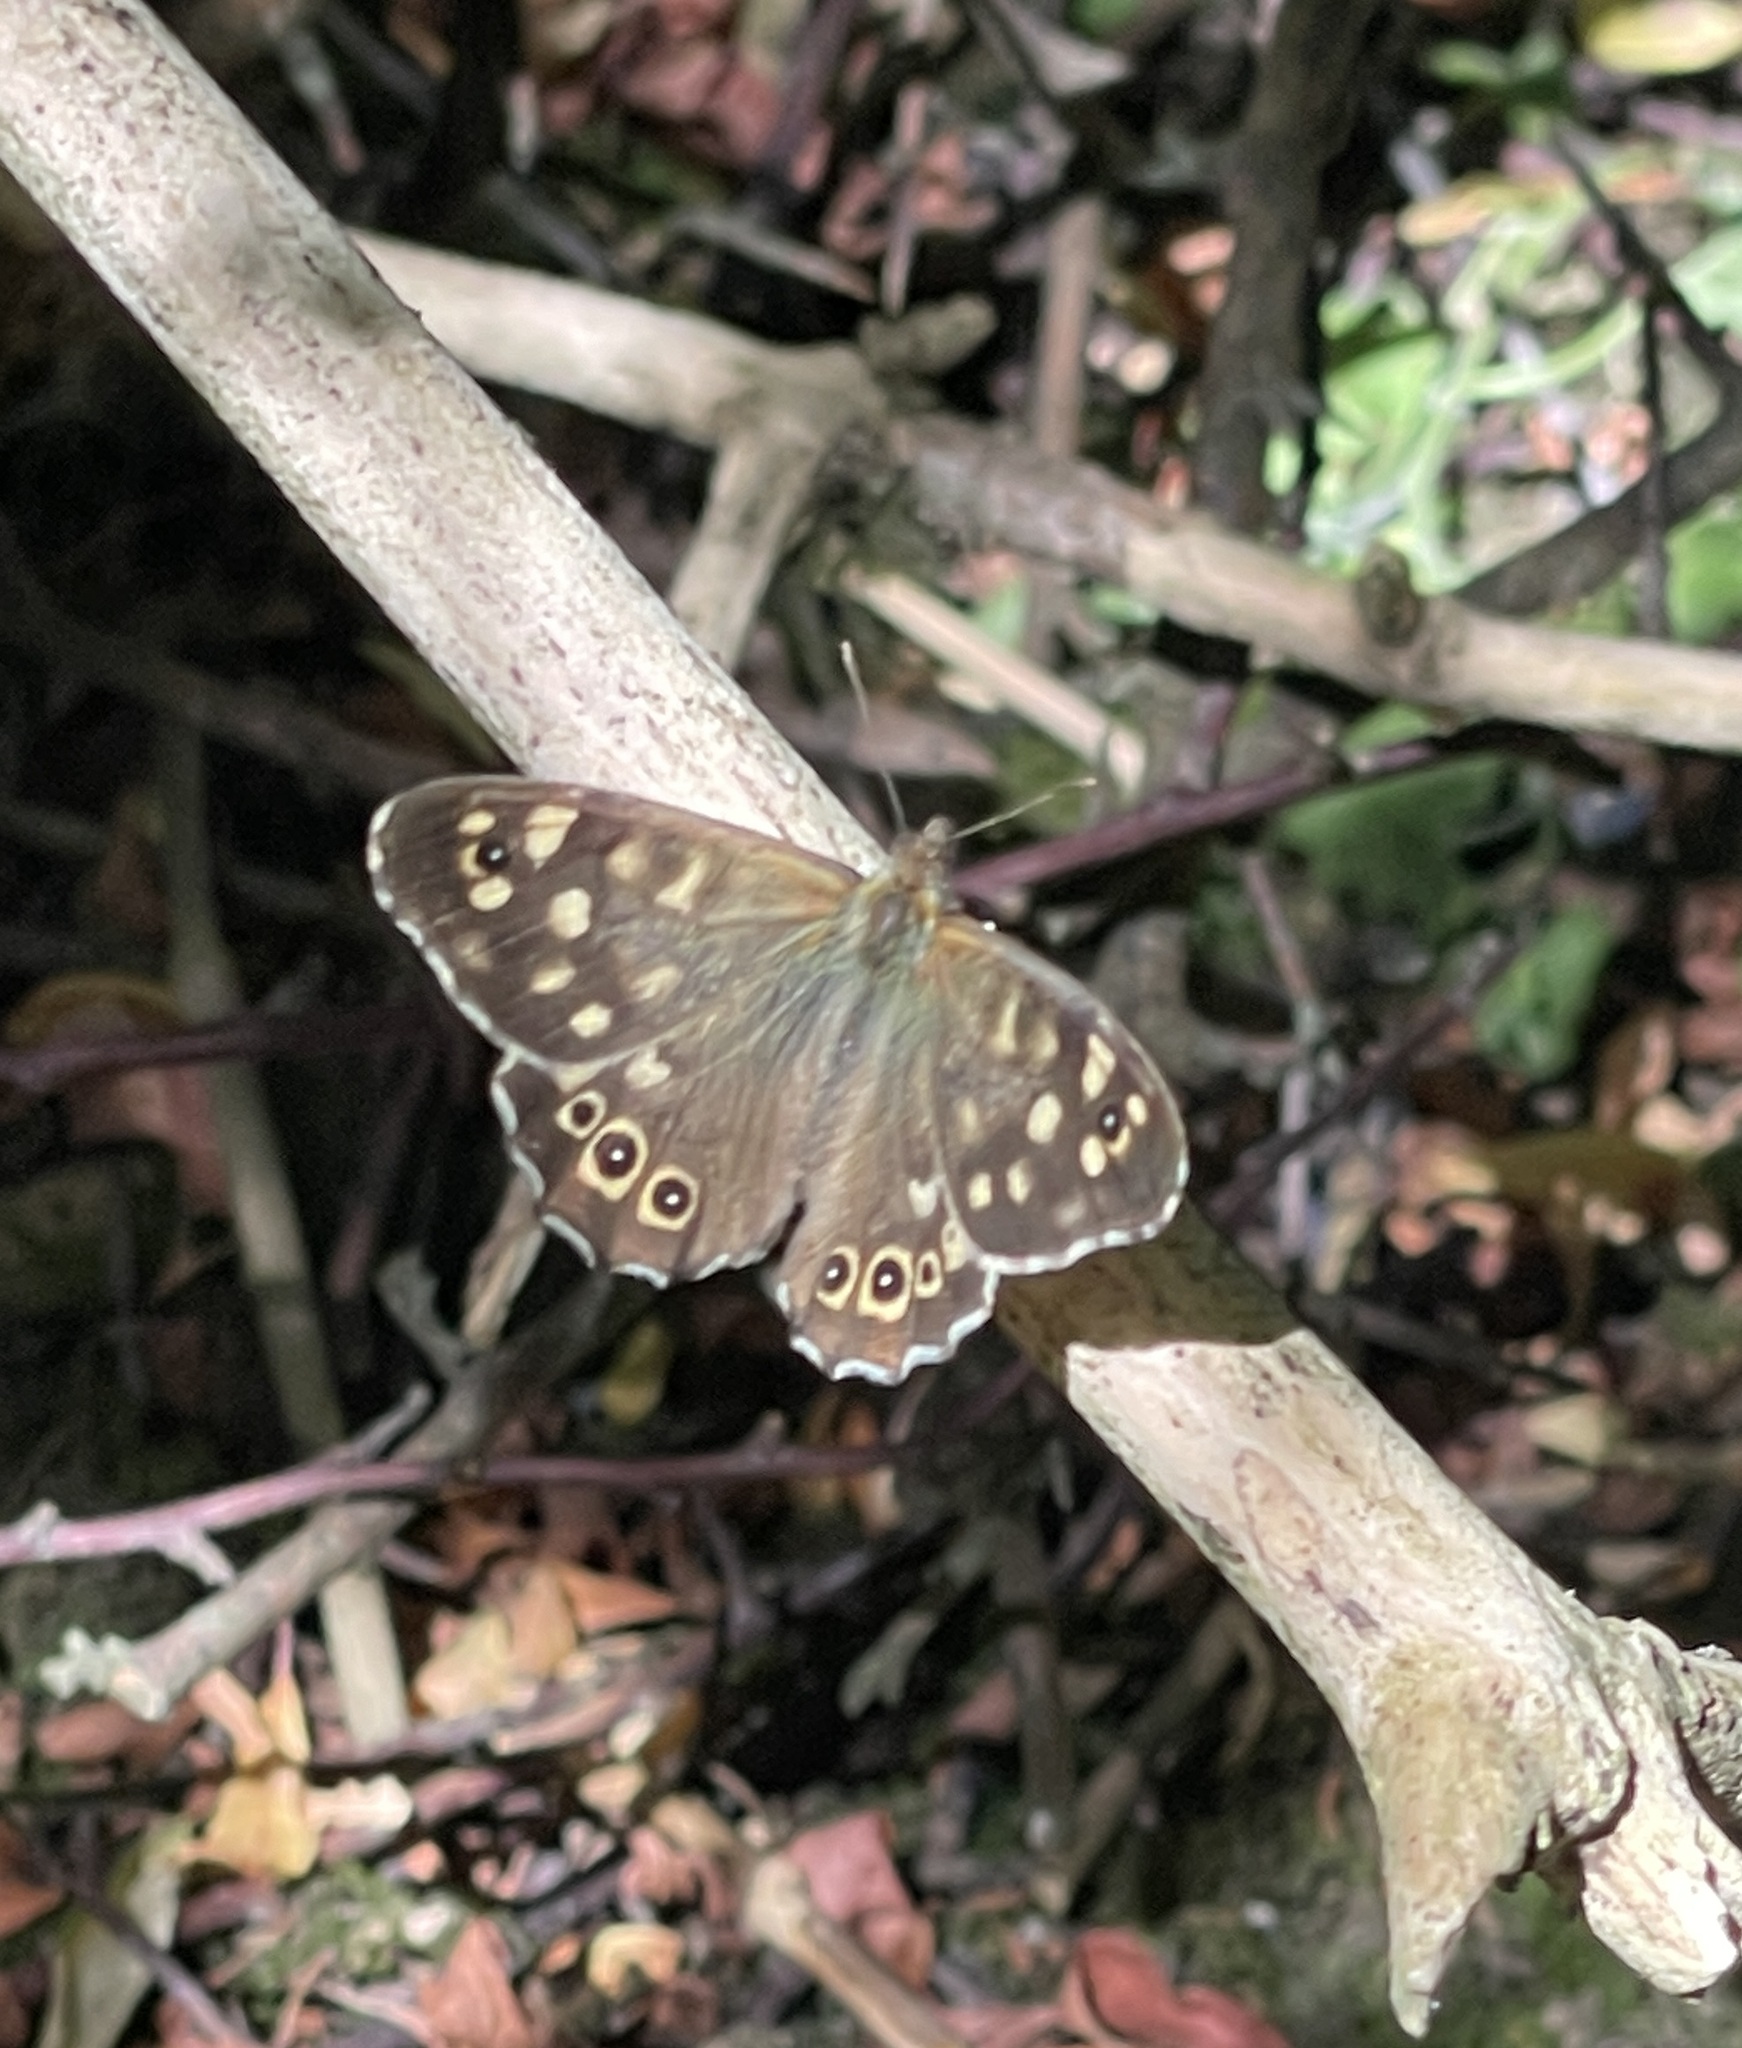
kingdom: Animalia
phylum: Arthropoda
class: Insecta
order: Lepidoptera
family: Nymphalidae
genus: Pararge
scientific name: Pararge aegeria
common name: Speckled wood
